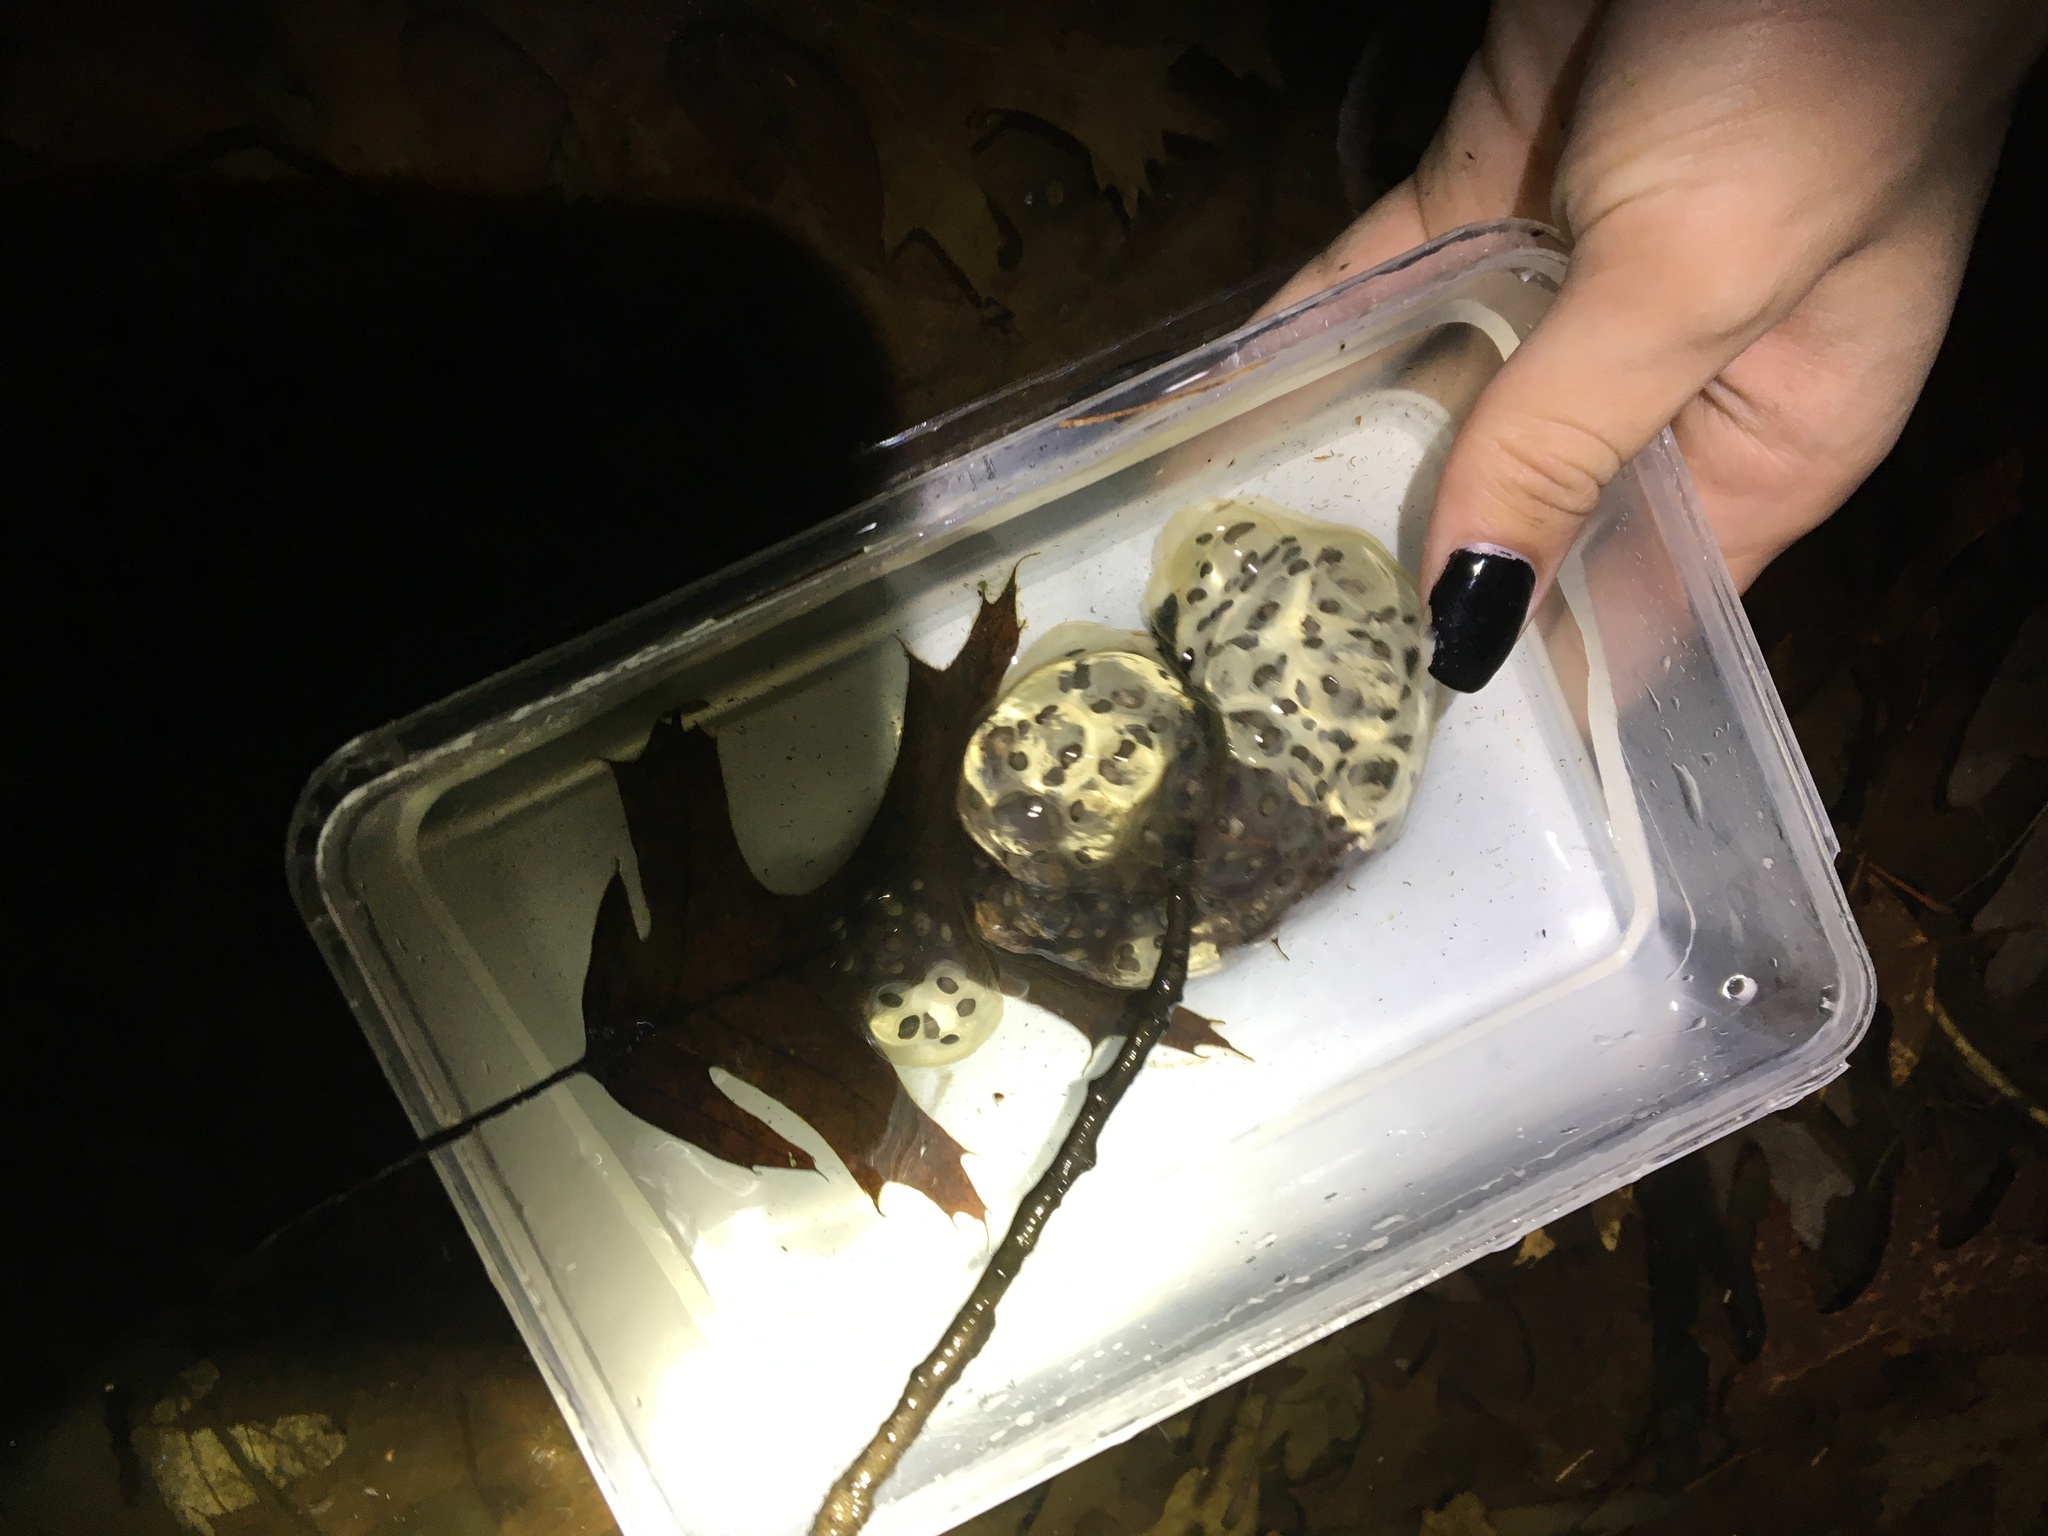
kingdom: Animalia
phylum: Chordata
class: Amphibia
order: Caudata
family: Ambystomatidae
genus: Ambystoma
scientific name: Ambystoma maculatum
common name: Spotted salamander
